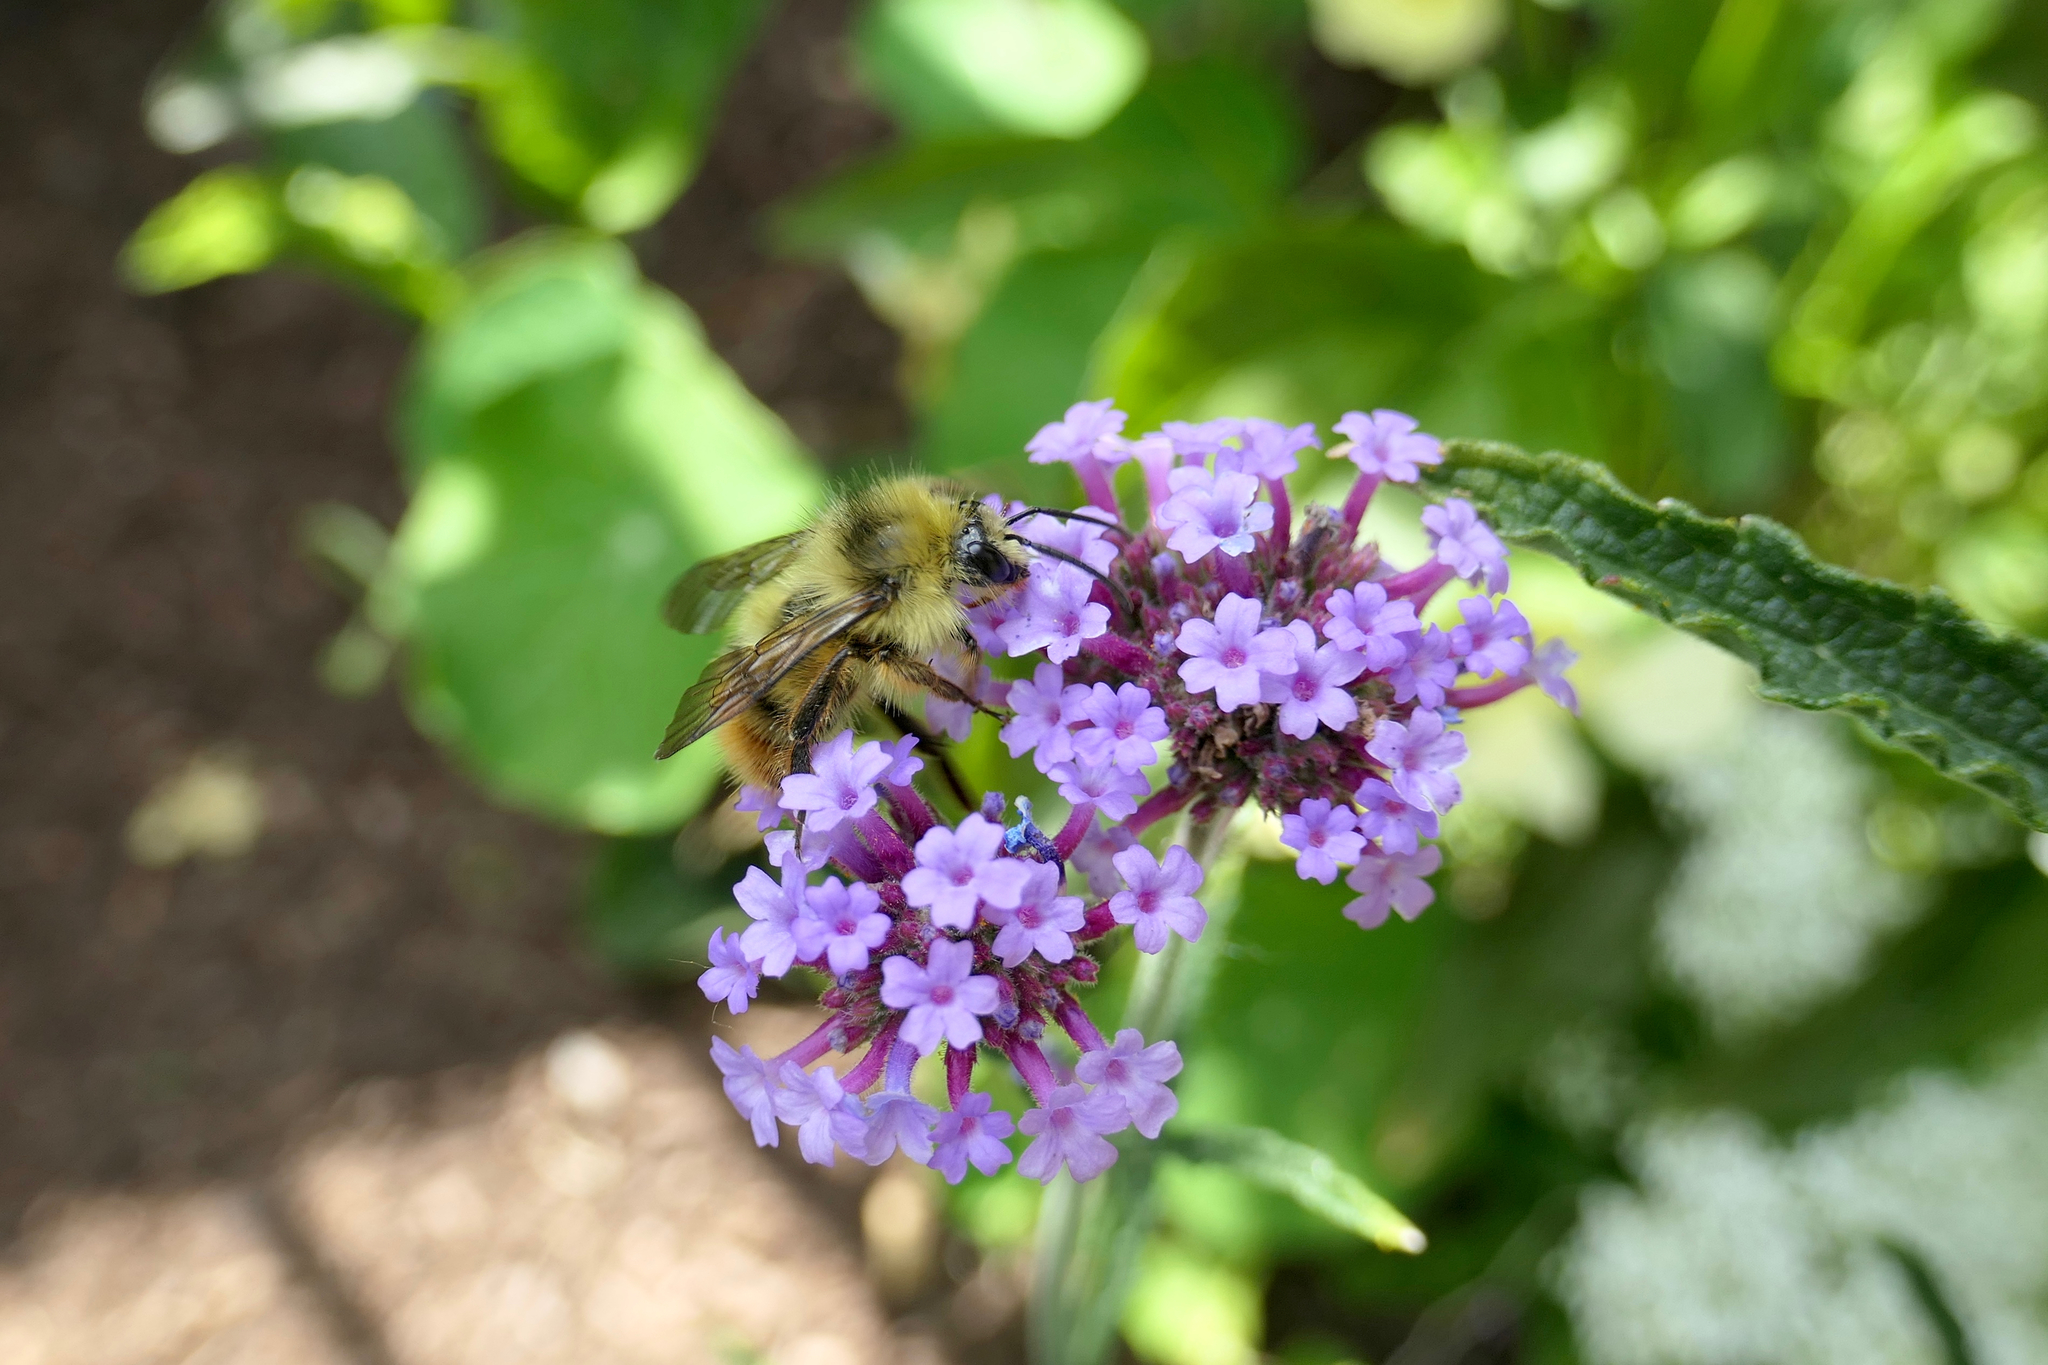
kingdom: Animalia
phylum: Arthropoda
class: Insecta
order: Hymenoptera
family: Apidae
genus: Bombus
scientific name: Bombus mixtus
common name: Fuzzy-horned bumble bee
